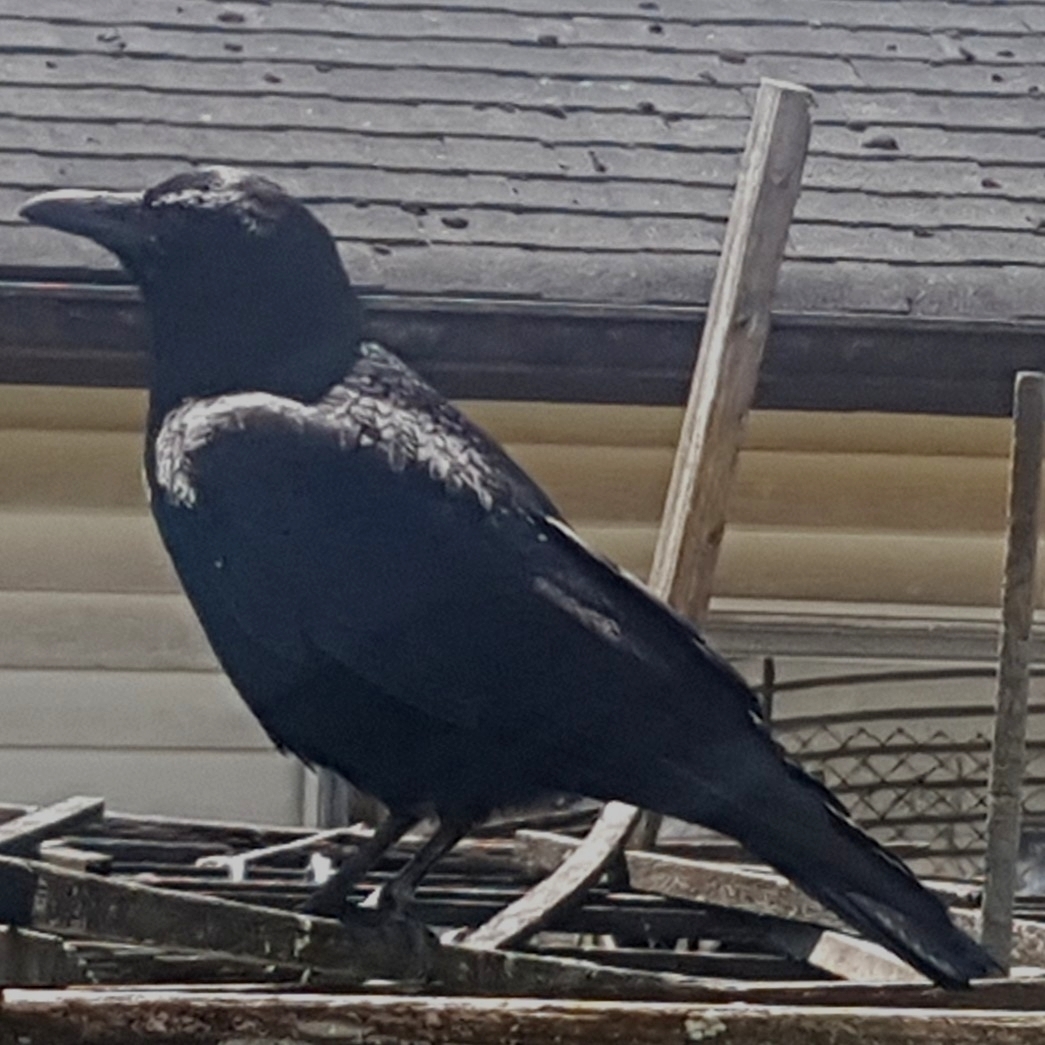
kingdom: Animalia
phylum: Chordata
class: Aves
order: Passeriformes
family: Corvidae
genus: Corvus
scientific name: Corvus brachyrhynchos
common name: American crow
